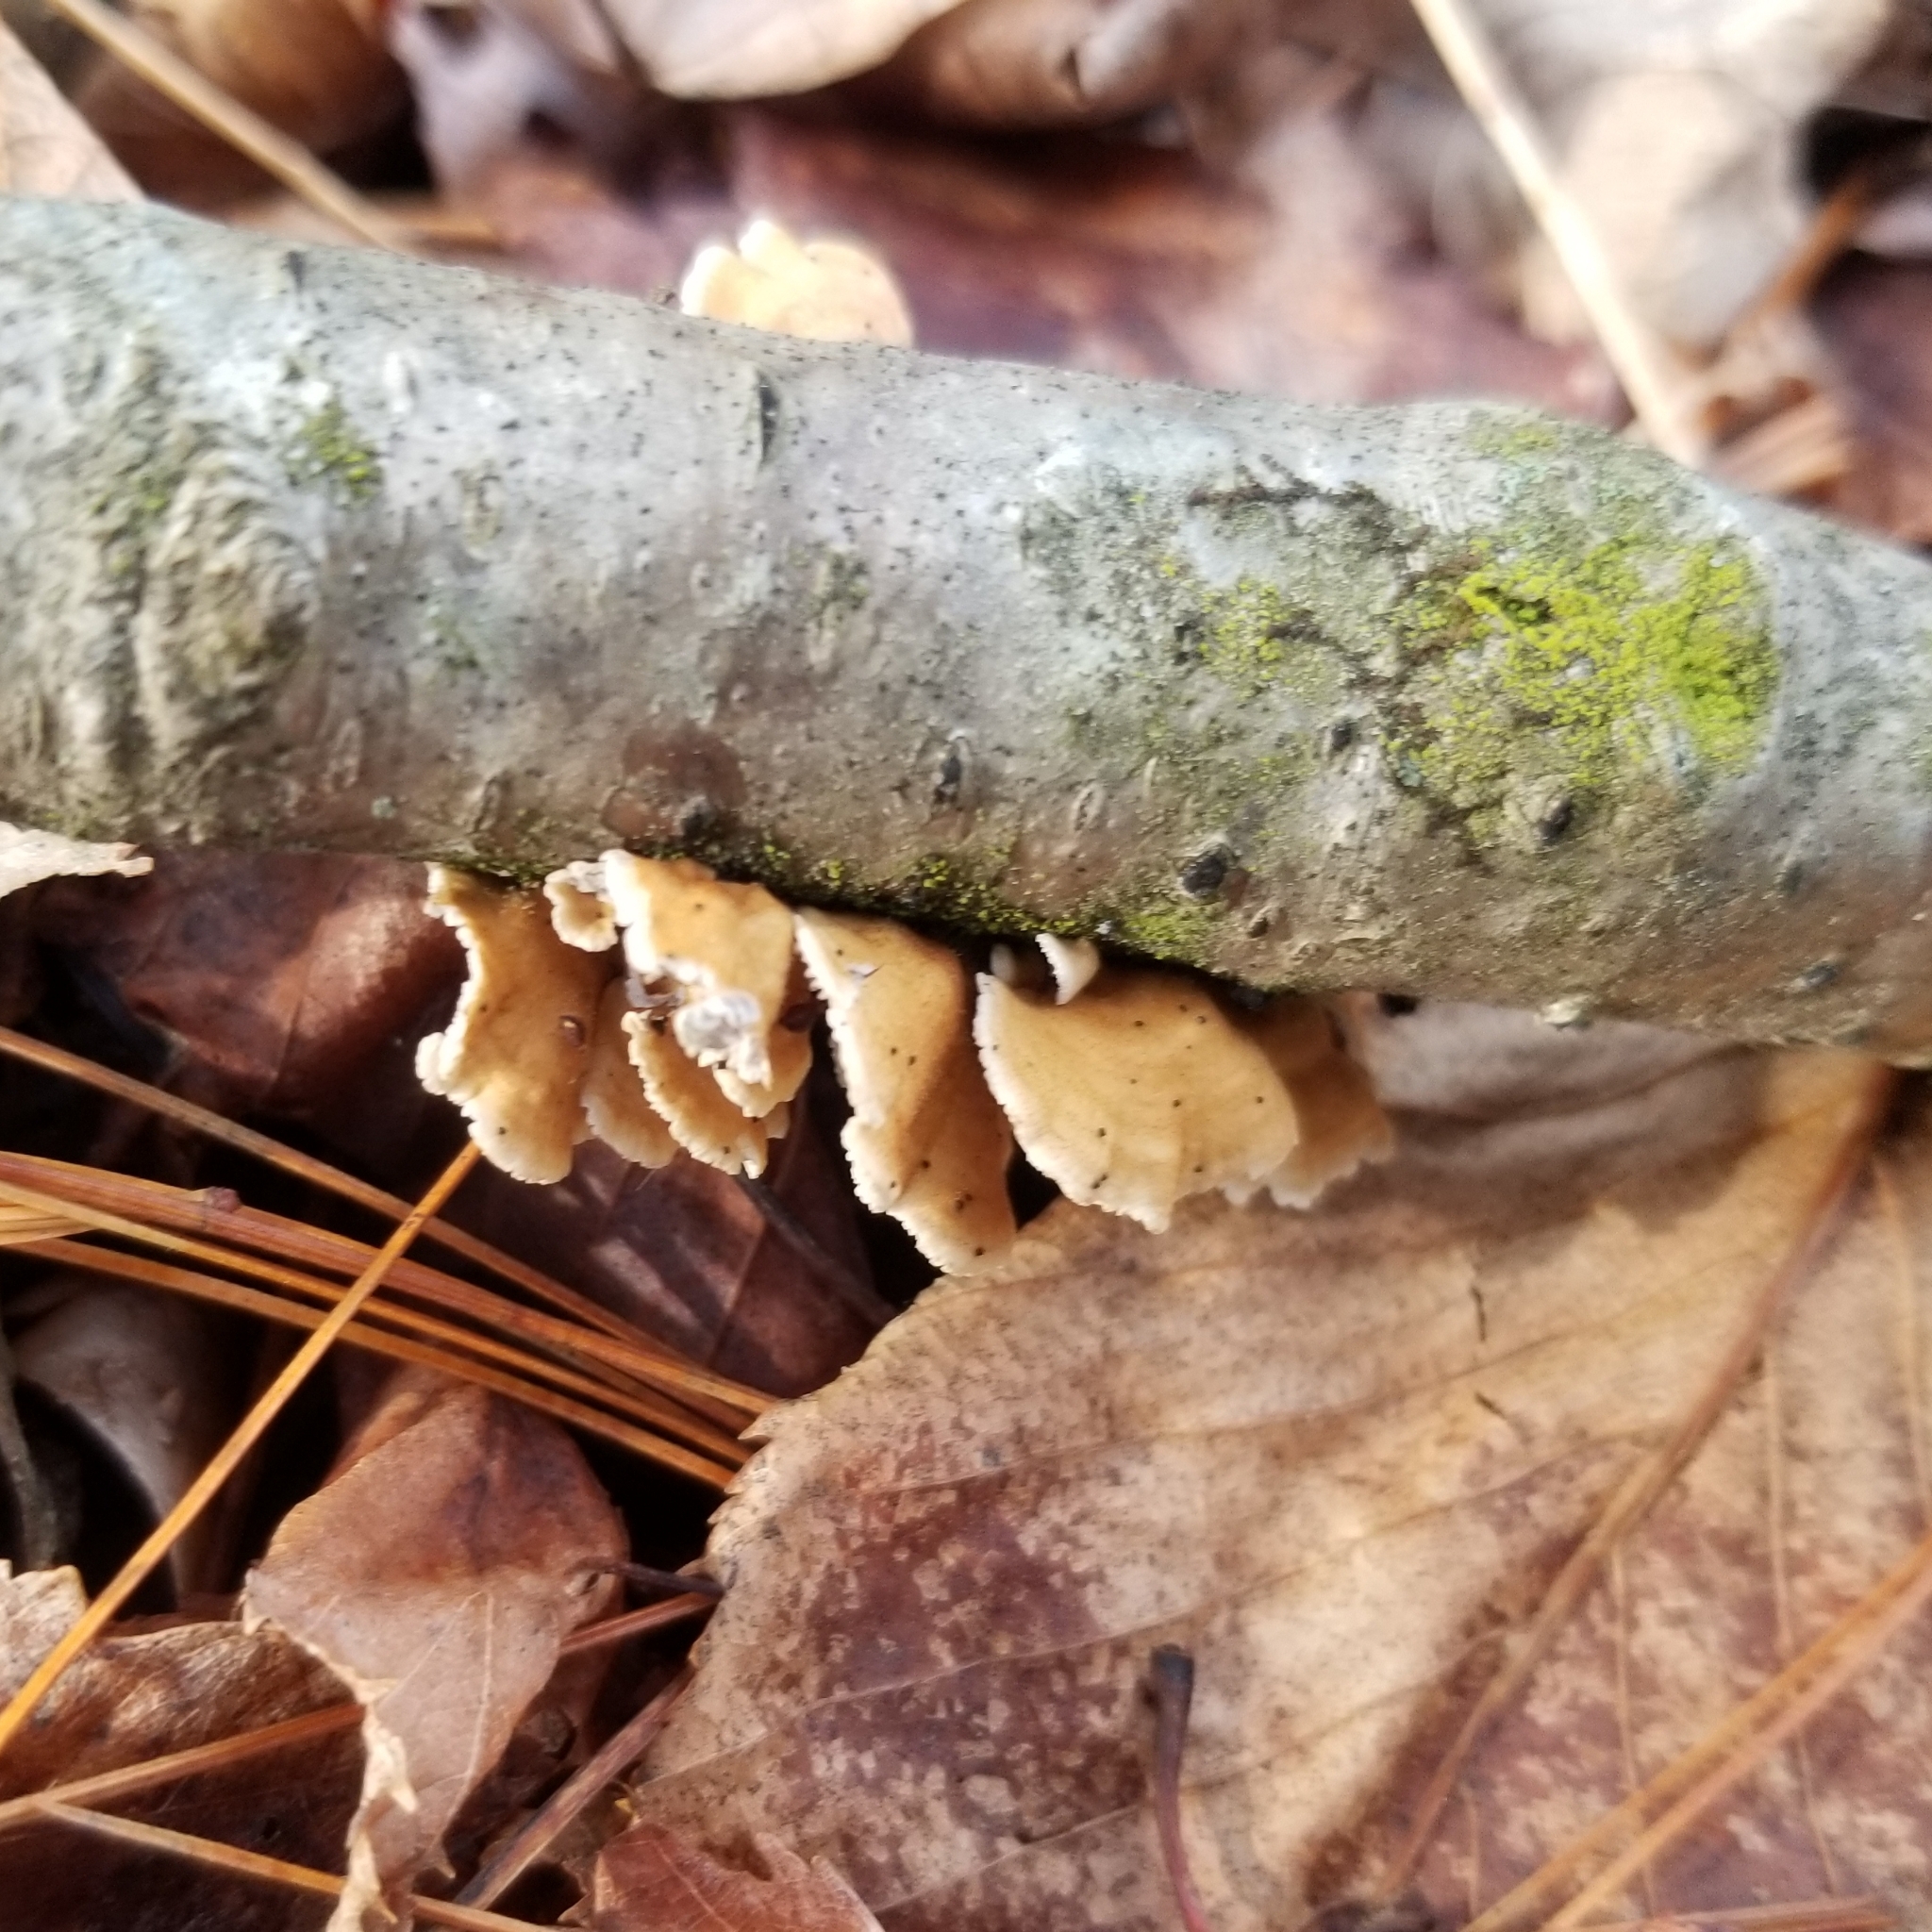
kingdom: Fungi
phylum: Basidiomycota
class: Agaricomycetes
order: Amylocorticiales
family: Amylocorticiaceae
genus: Plicaturopsis
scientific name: Plicaturopsis crispa
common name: Crimped gill
